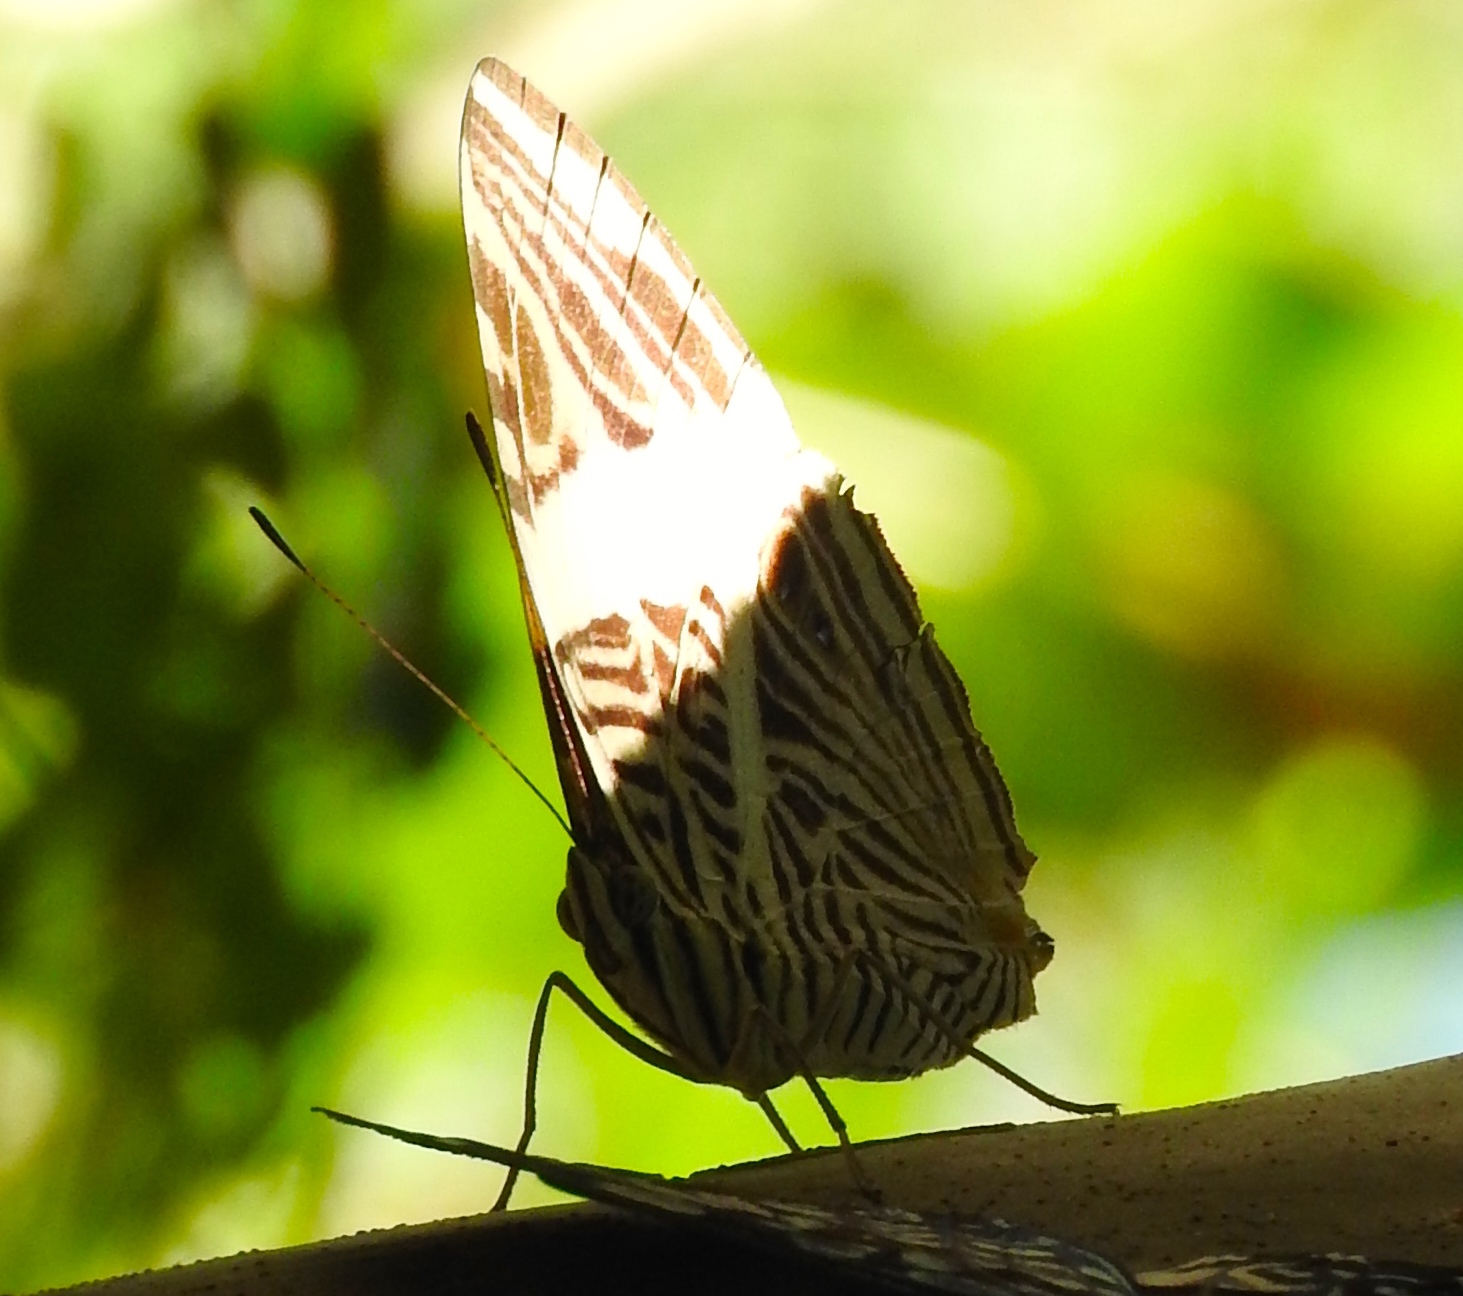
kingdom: Animalia
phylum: Arthropoda
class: Insecta
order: Lepidoptera
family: Nymphalidae
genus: Colobura
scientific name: Colobura dirce
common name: Dirce beauty
